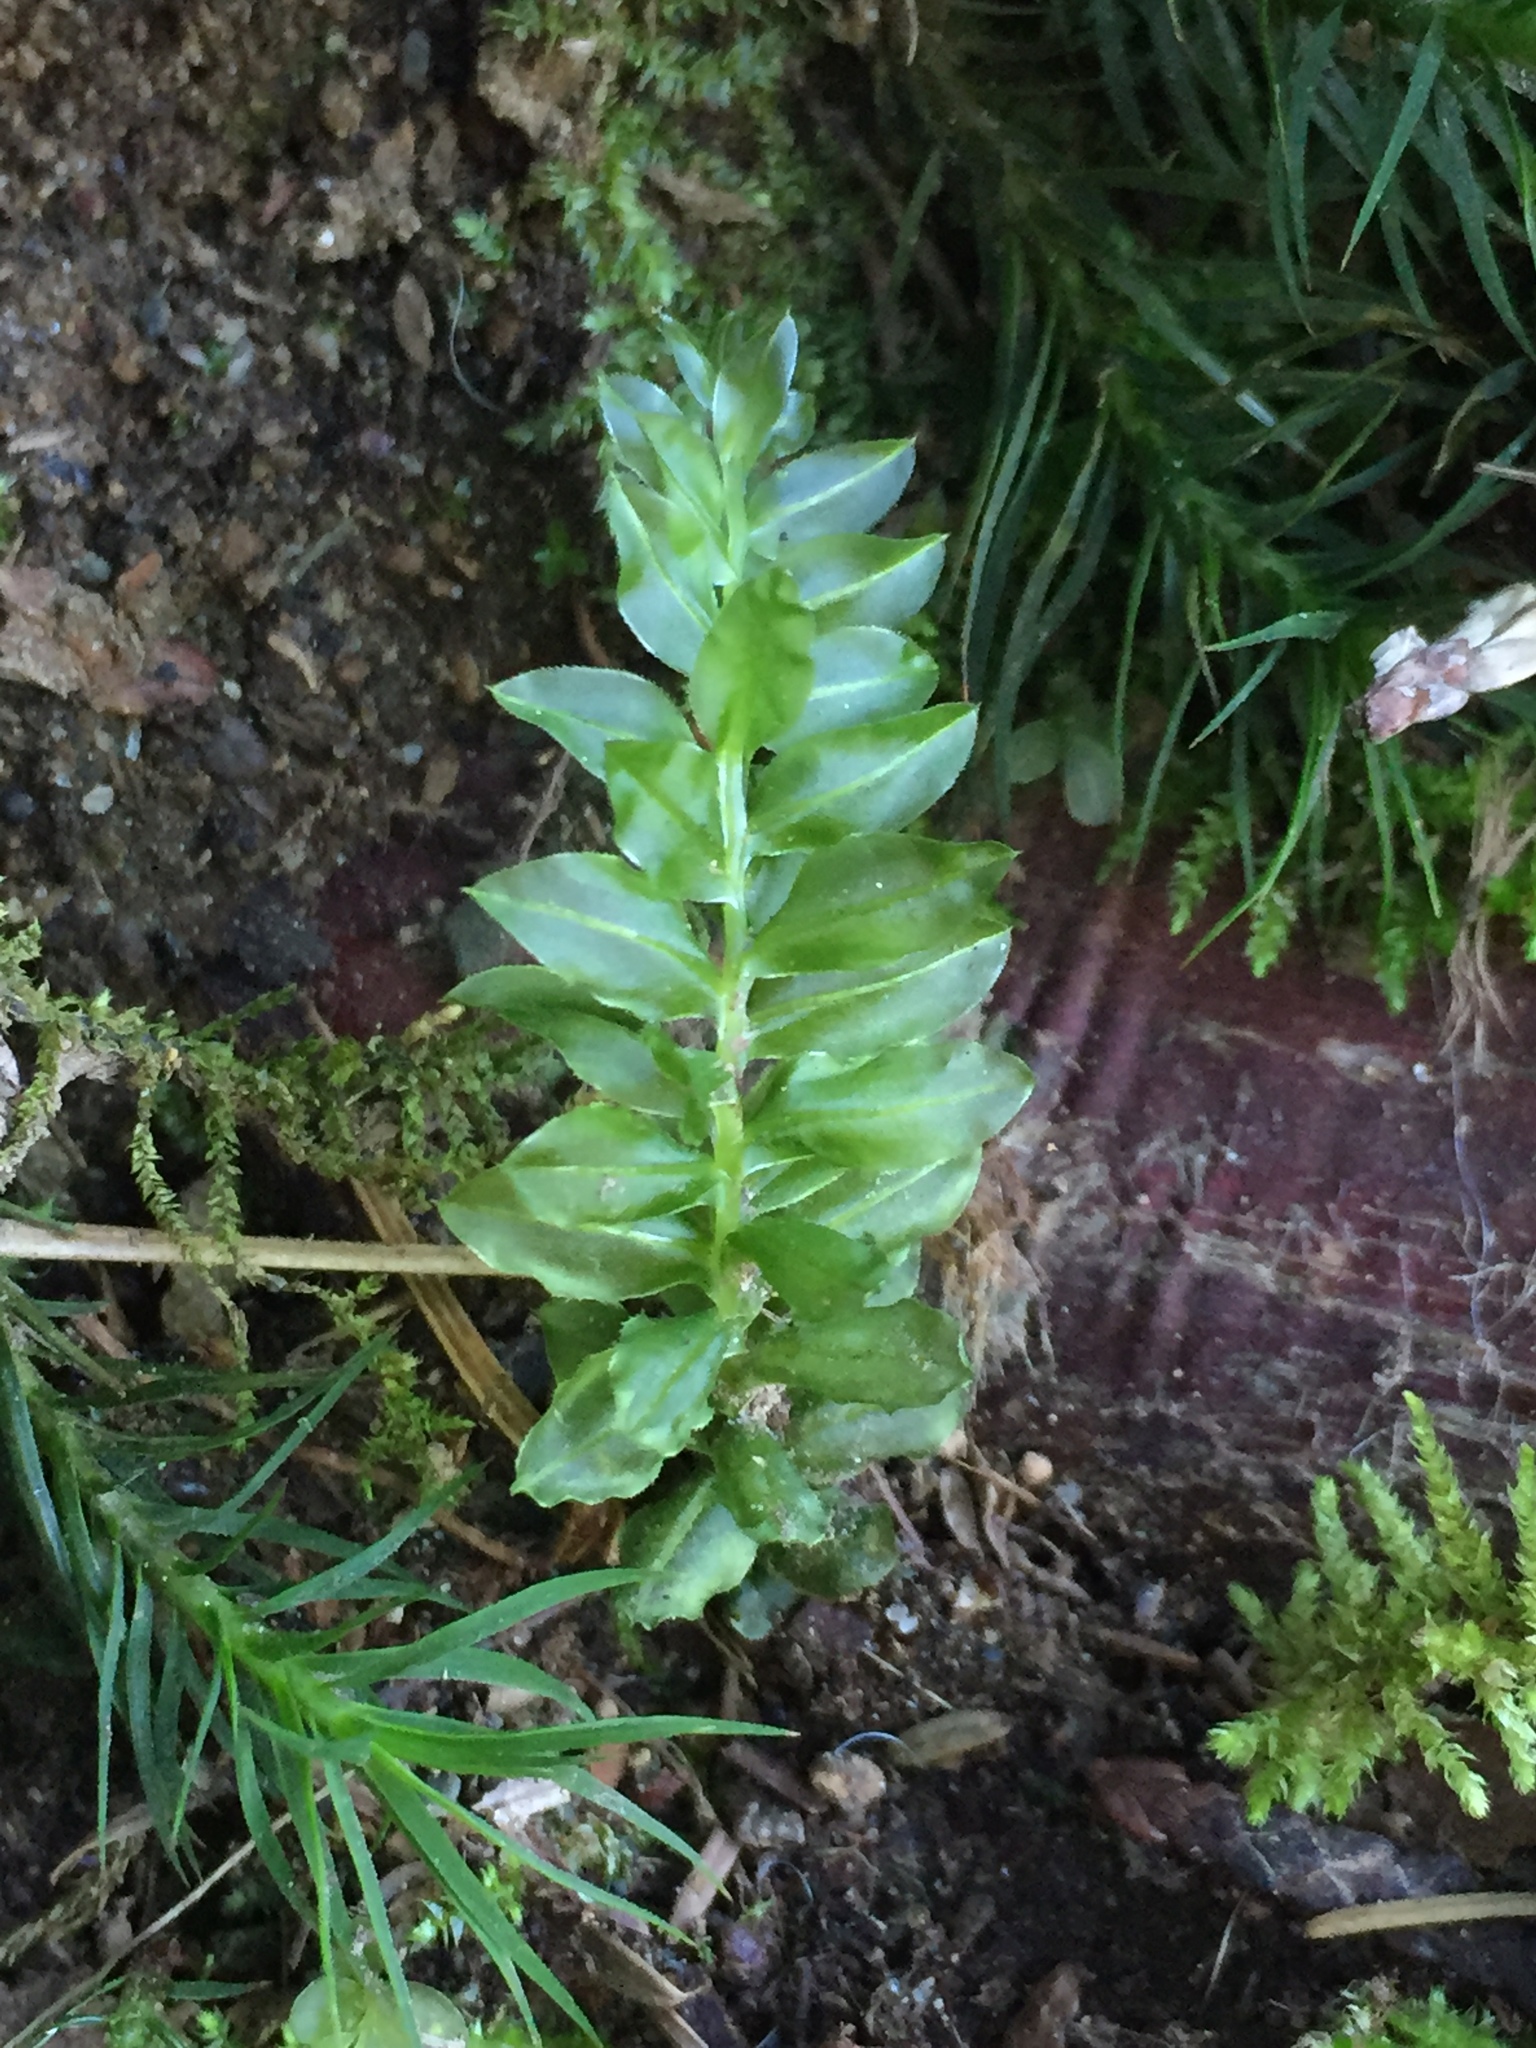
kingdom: Plantae
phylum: Bryophyta
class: Bryopsida
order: Bryales
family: Mniaceae
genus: Plagiomnium
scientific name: Plagiomnium insigne
